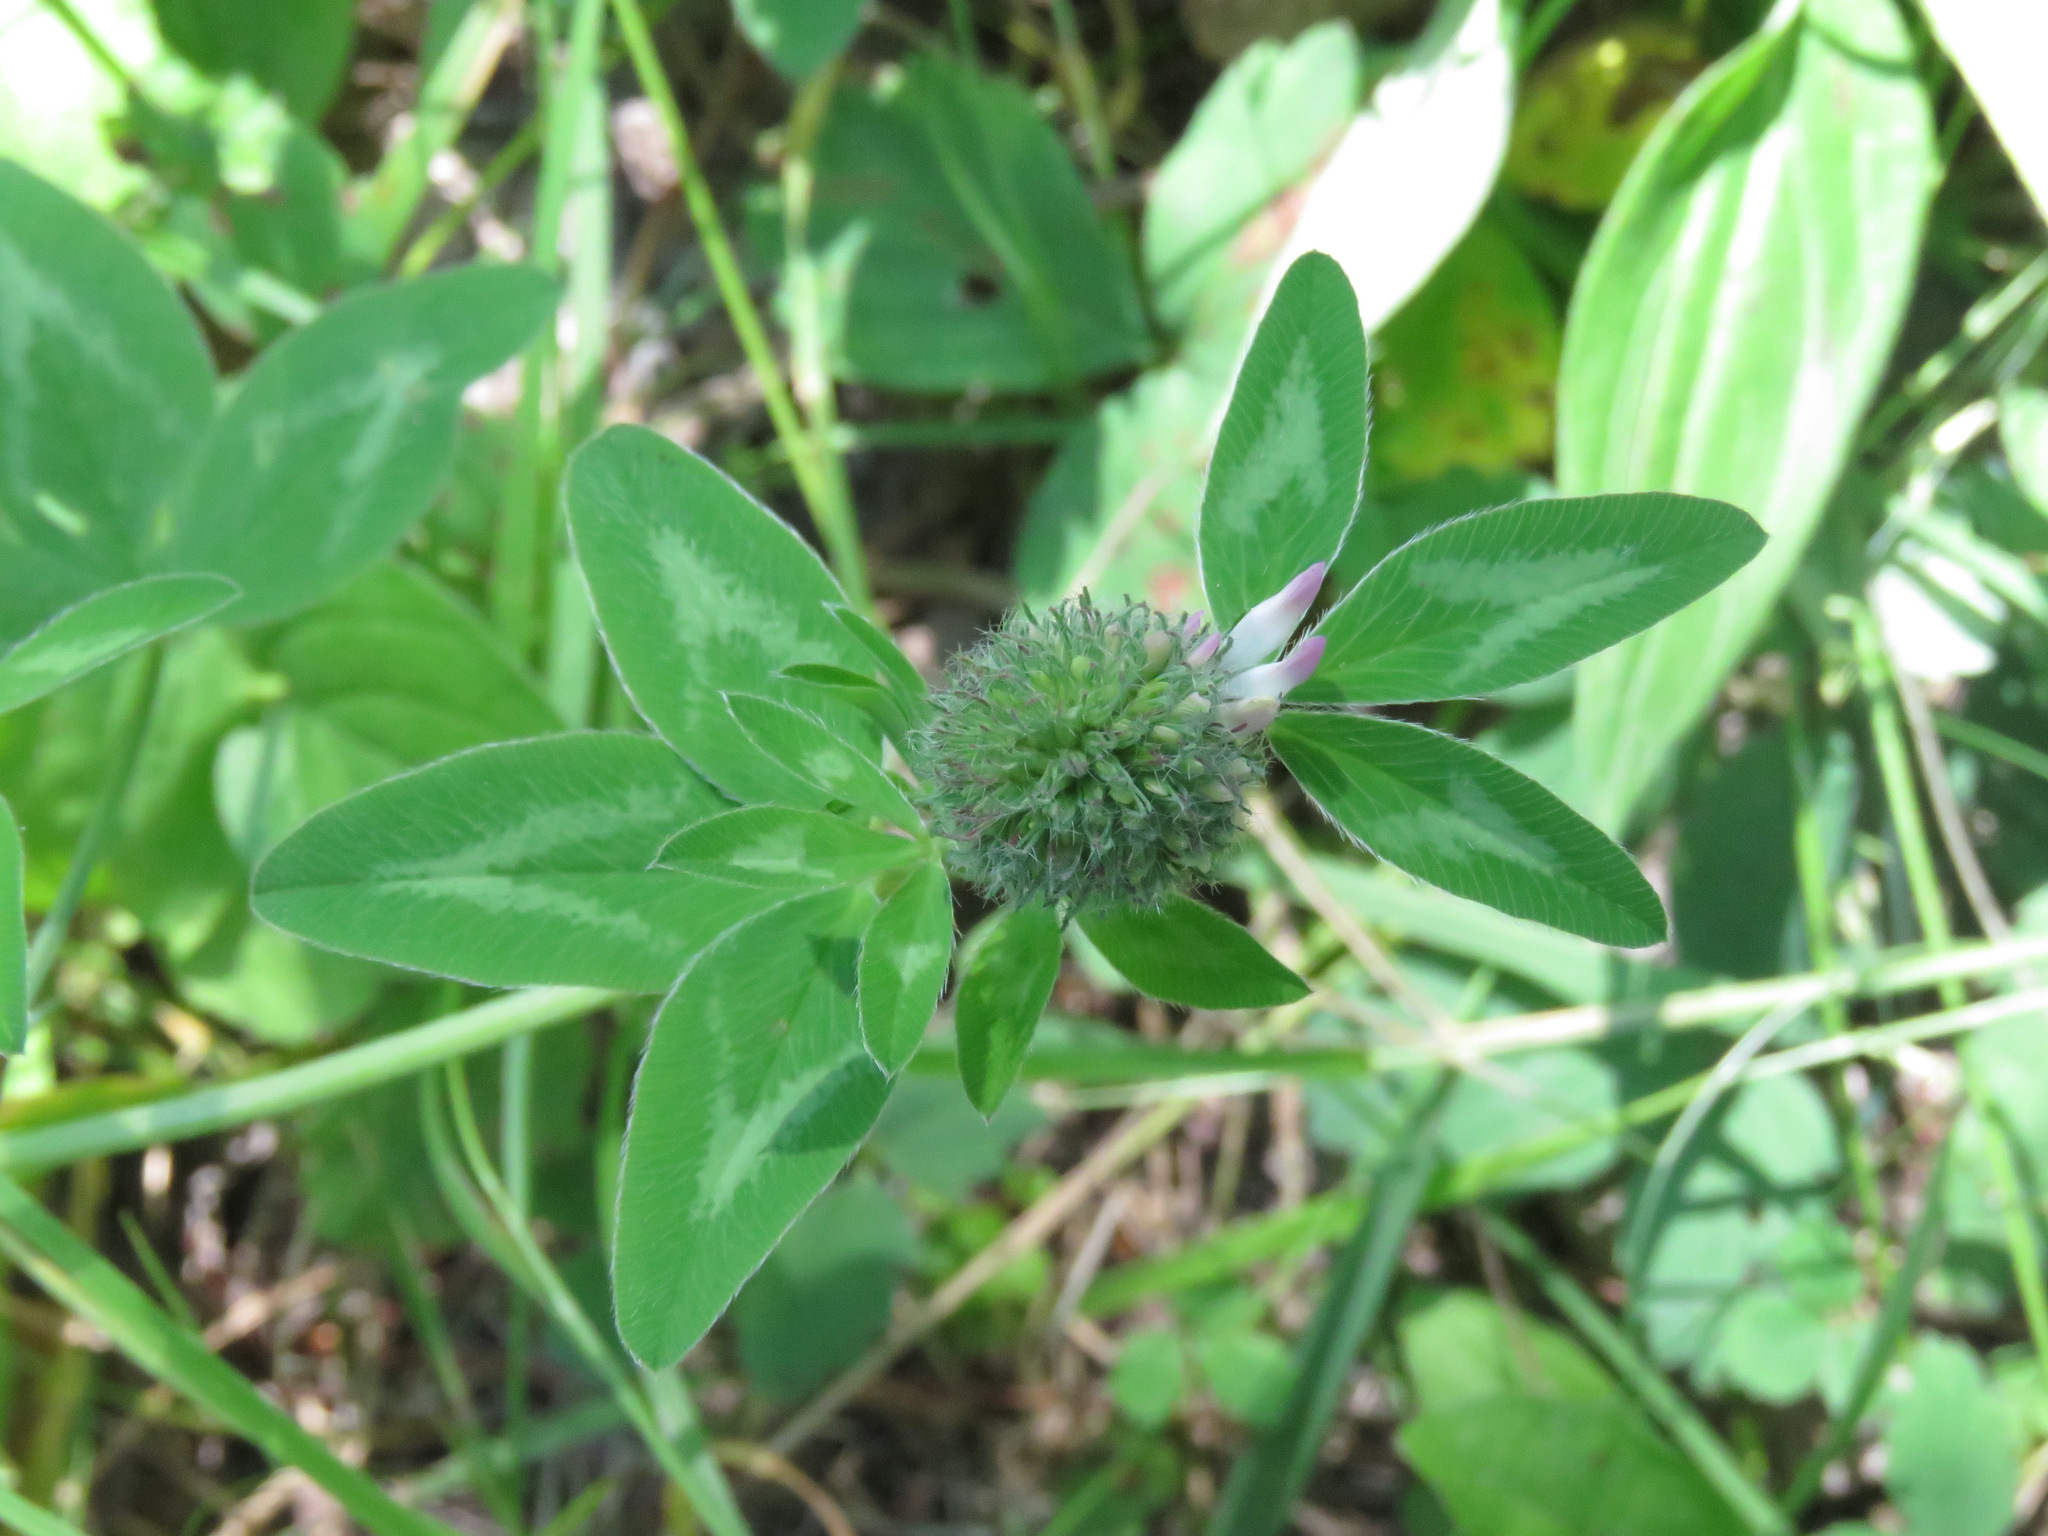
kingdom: Plantae
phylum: Tracheophyta
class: Magnoliopsida
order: Fabales
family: Fabaceae
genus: Trifolium
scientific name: Trifolium pratense
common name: Red clover
